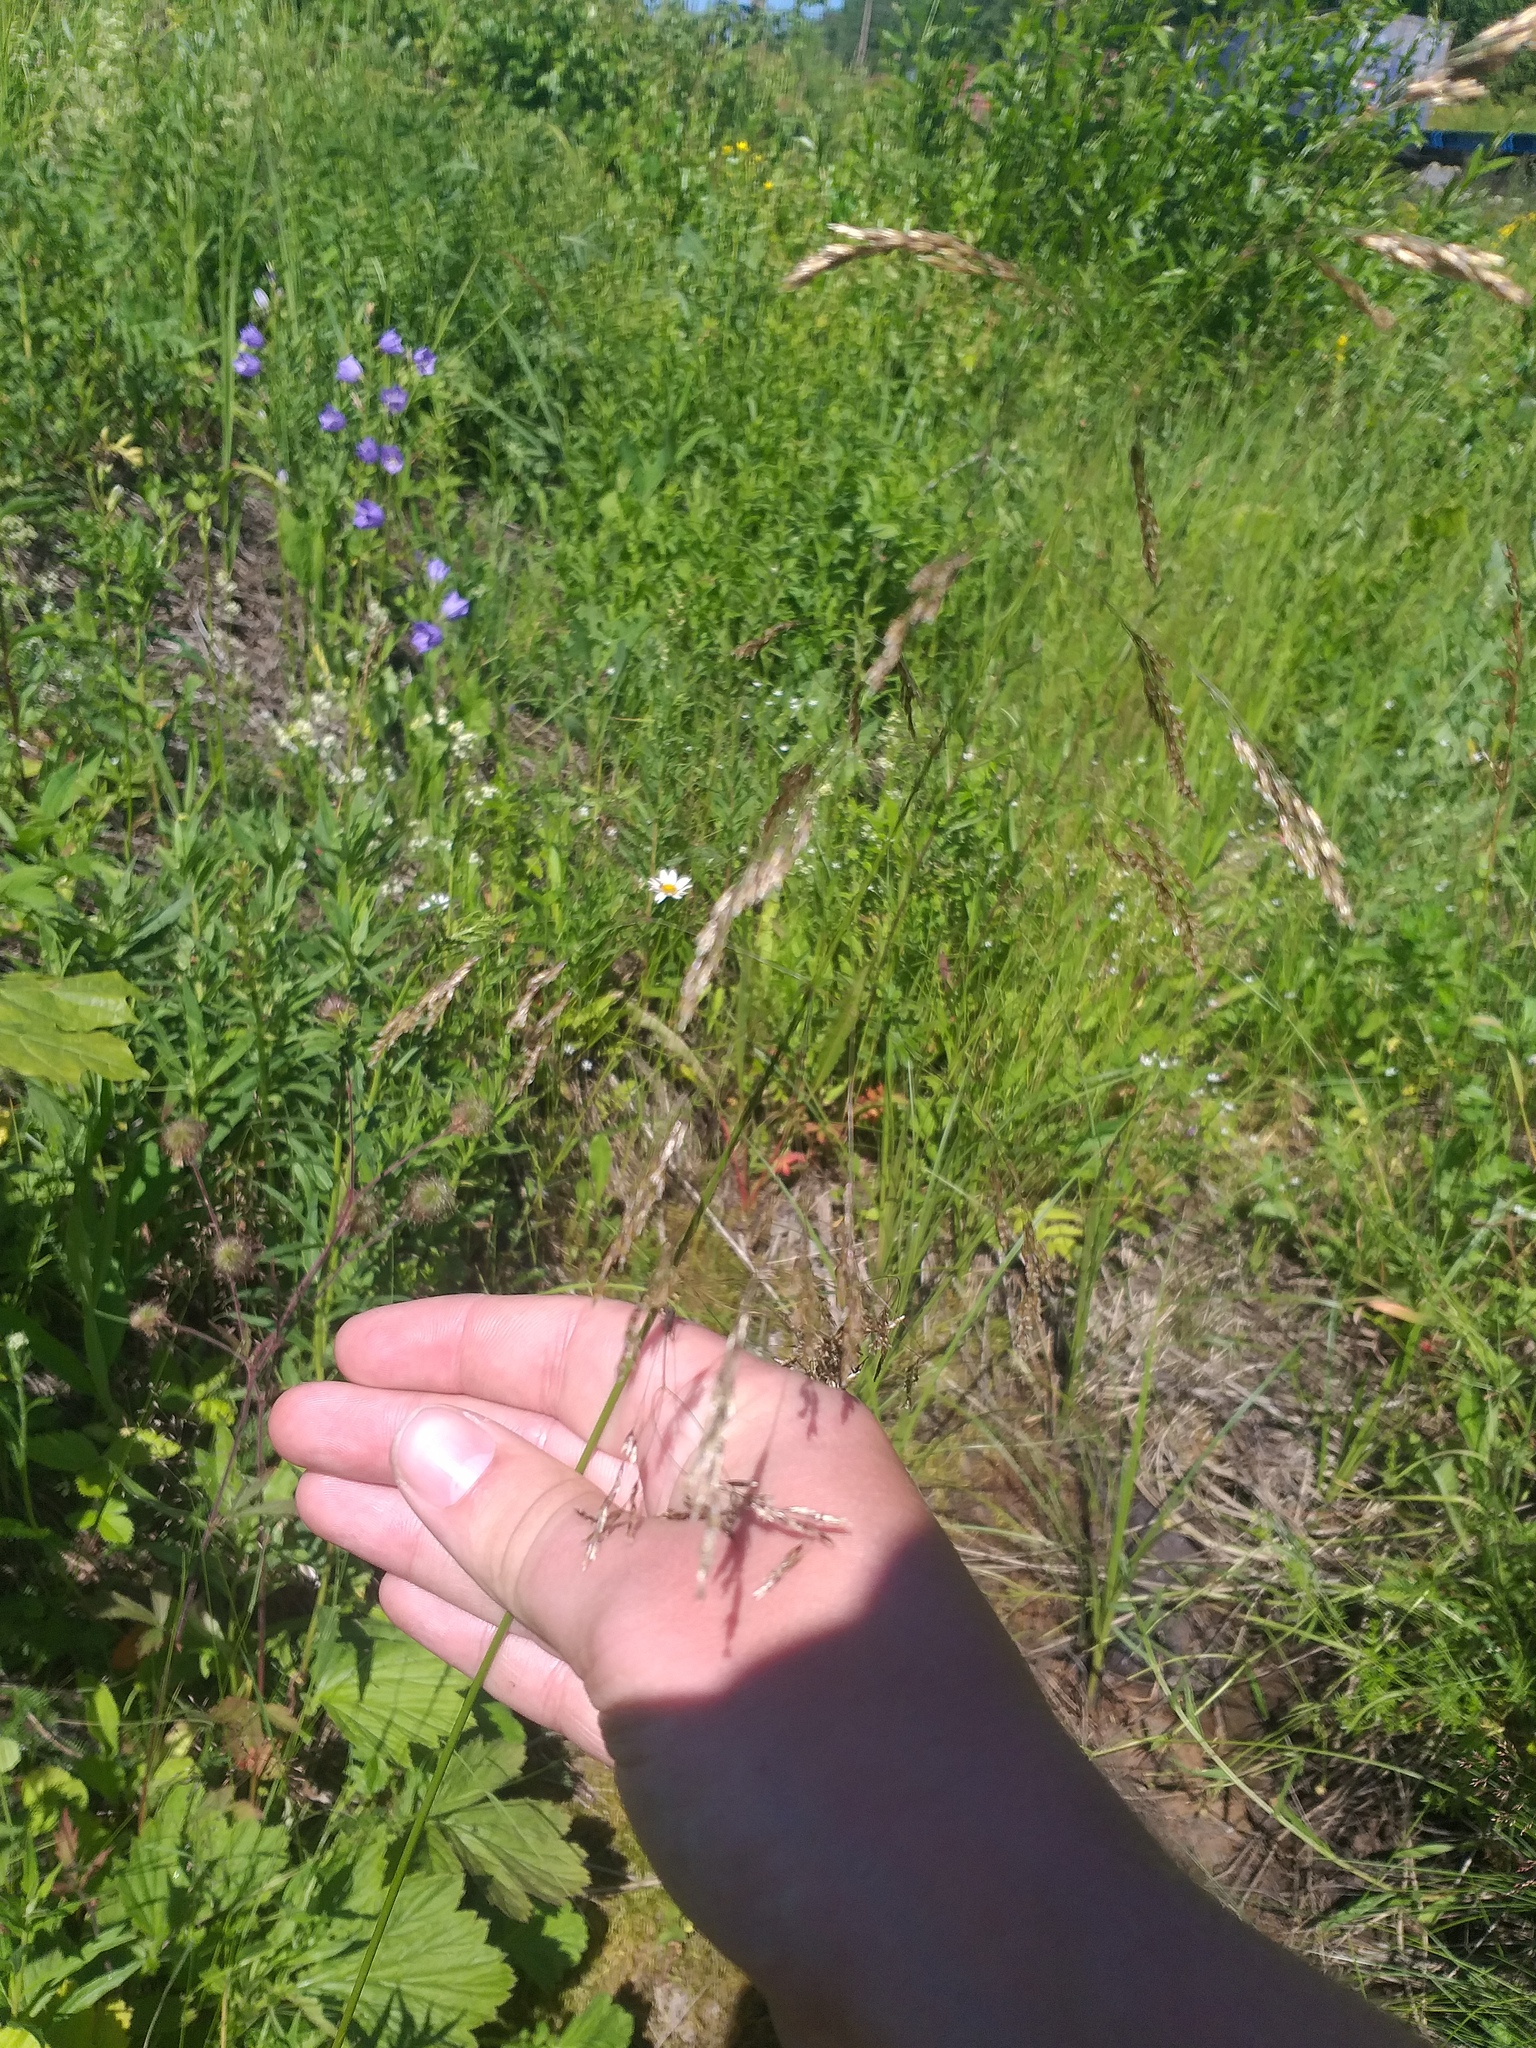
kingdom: Plantae
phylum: Tracheophyta
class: Liliopsida
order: Poales
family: Poaceae
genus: Deschampsia
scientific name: Deschampsia cespitosa
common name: Tufted hair-grass
